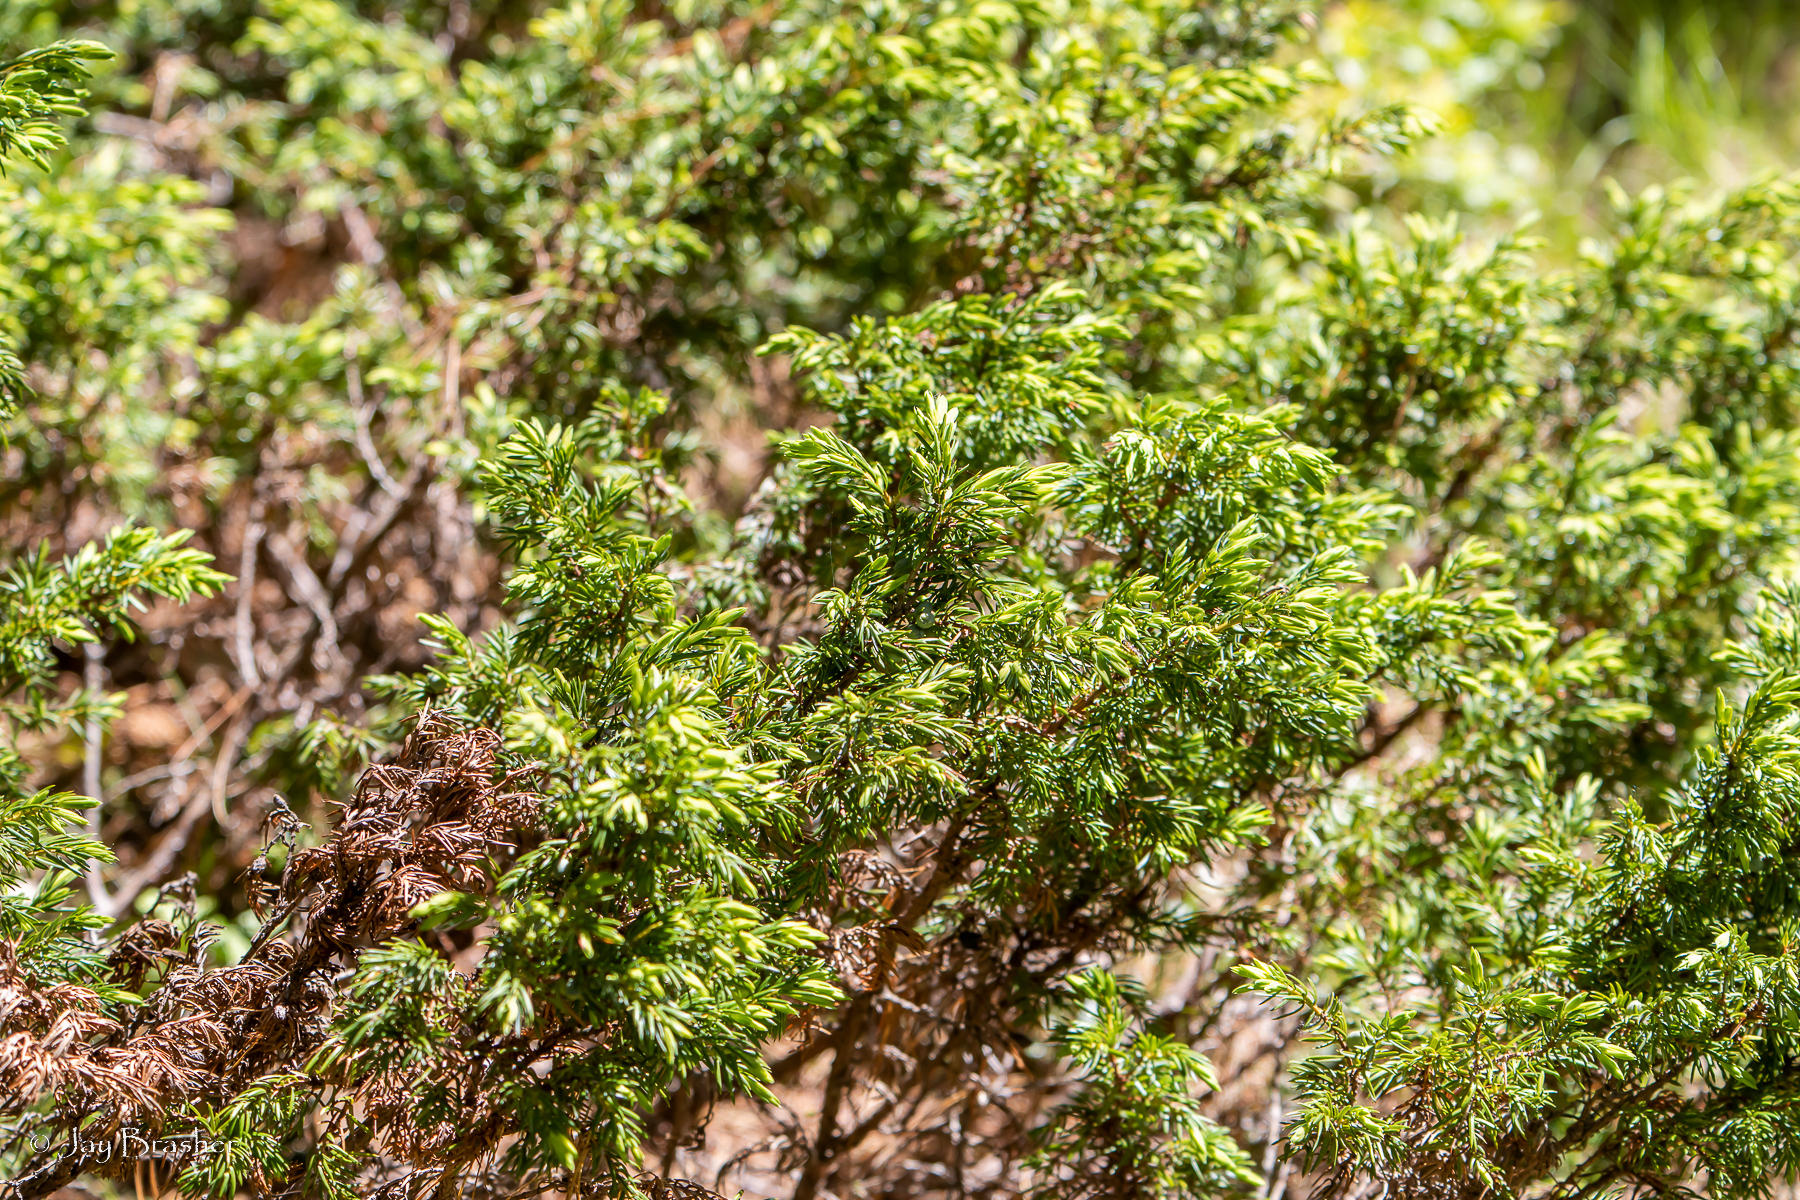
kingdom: Plantae
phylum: Tracheophyta
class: Pinopsida
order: Pinales
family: Cupressaceae
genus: Juniperus
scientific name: Juniperus communis
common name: Common juniper
